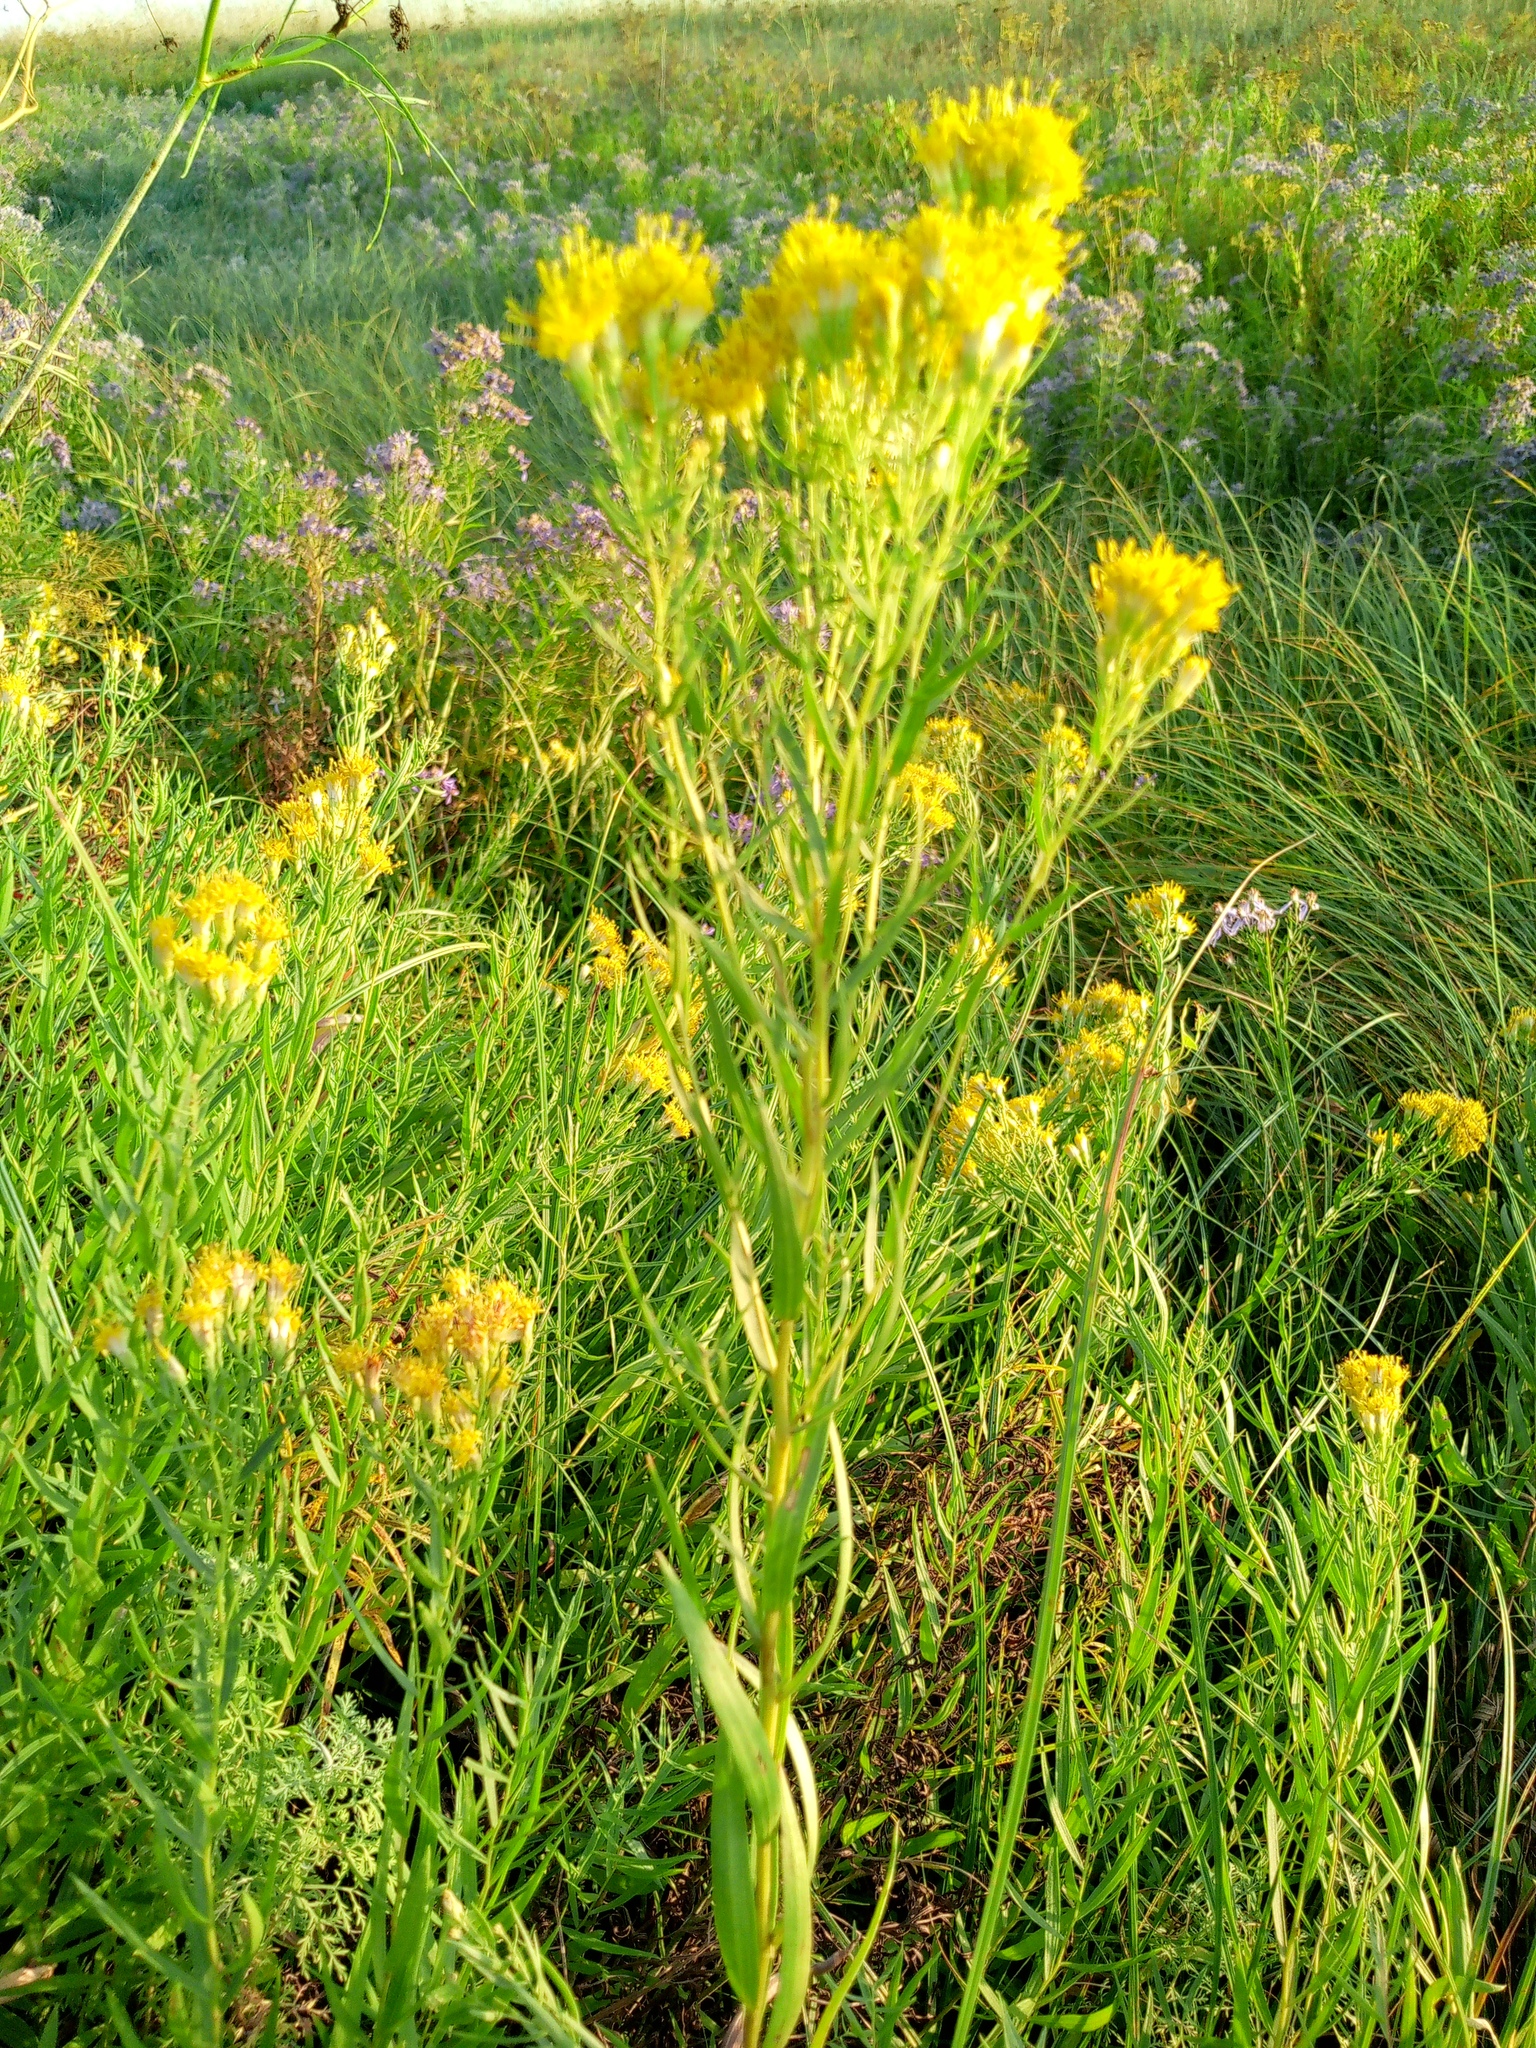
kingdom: Plantae
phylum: Tracheophyta
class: Magnoliopsida
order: Asterales
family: Asteraceae
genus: Galatella
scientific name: Galatella biflora
